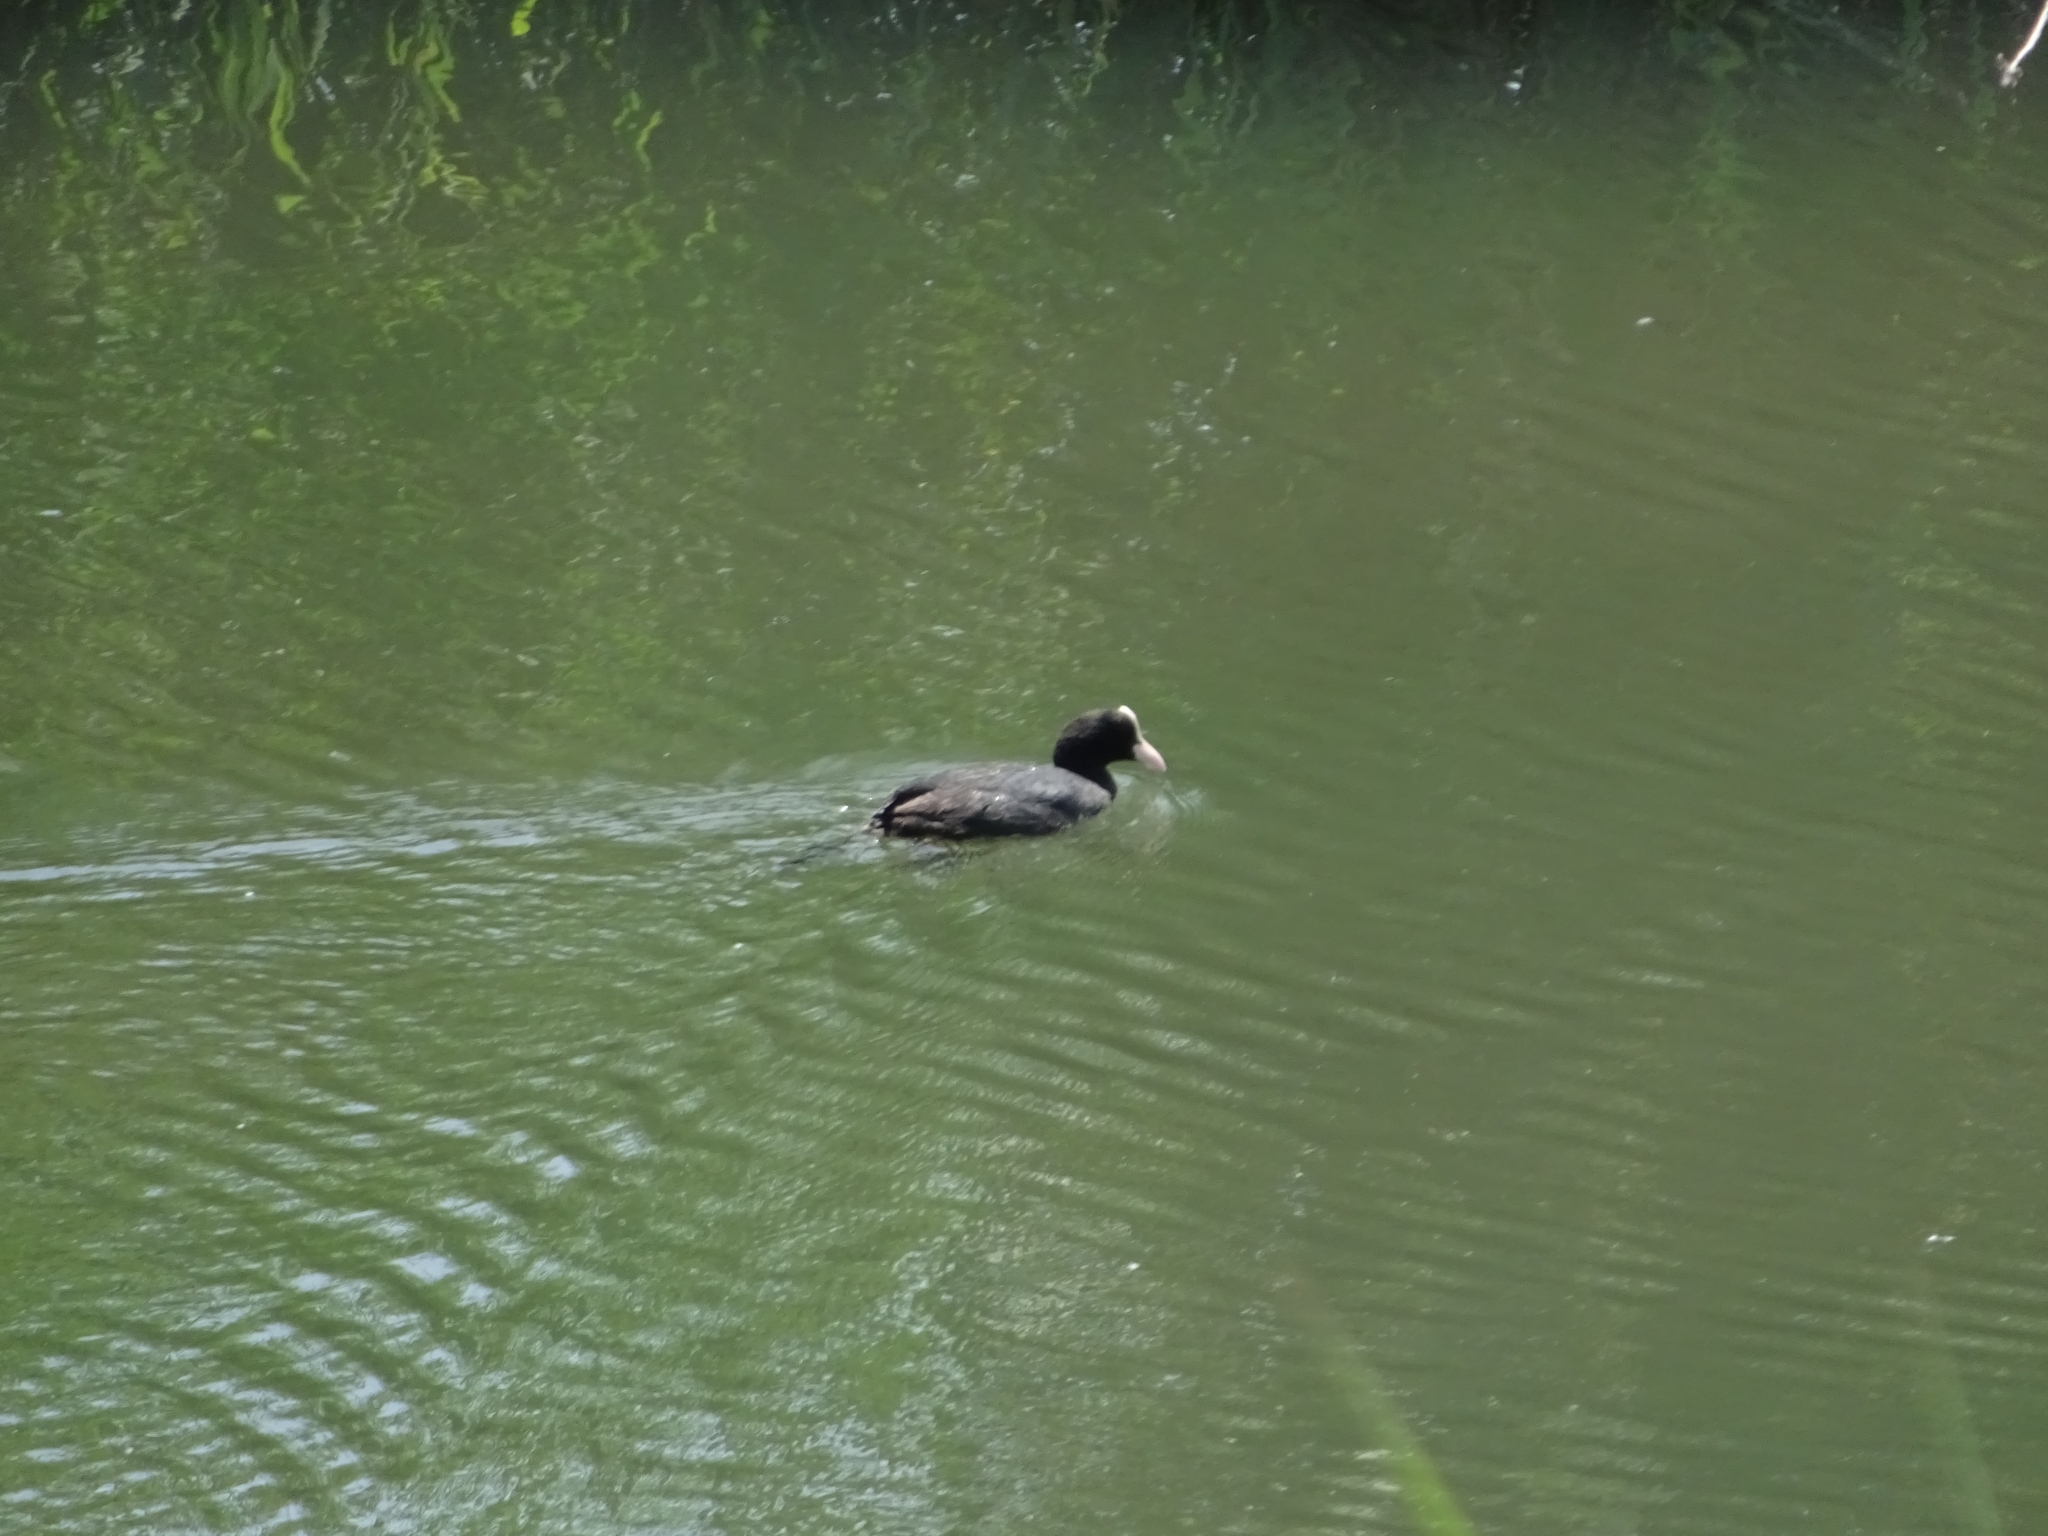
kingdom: Animalia
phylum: Chordata
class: Aves
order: Gruiformes
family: Rallidae
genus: Fulica
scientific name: Fulica atra
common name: Eurasian coot
